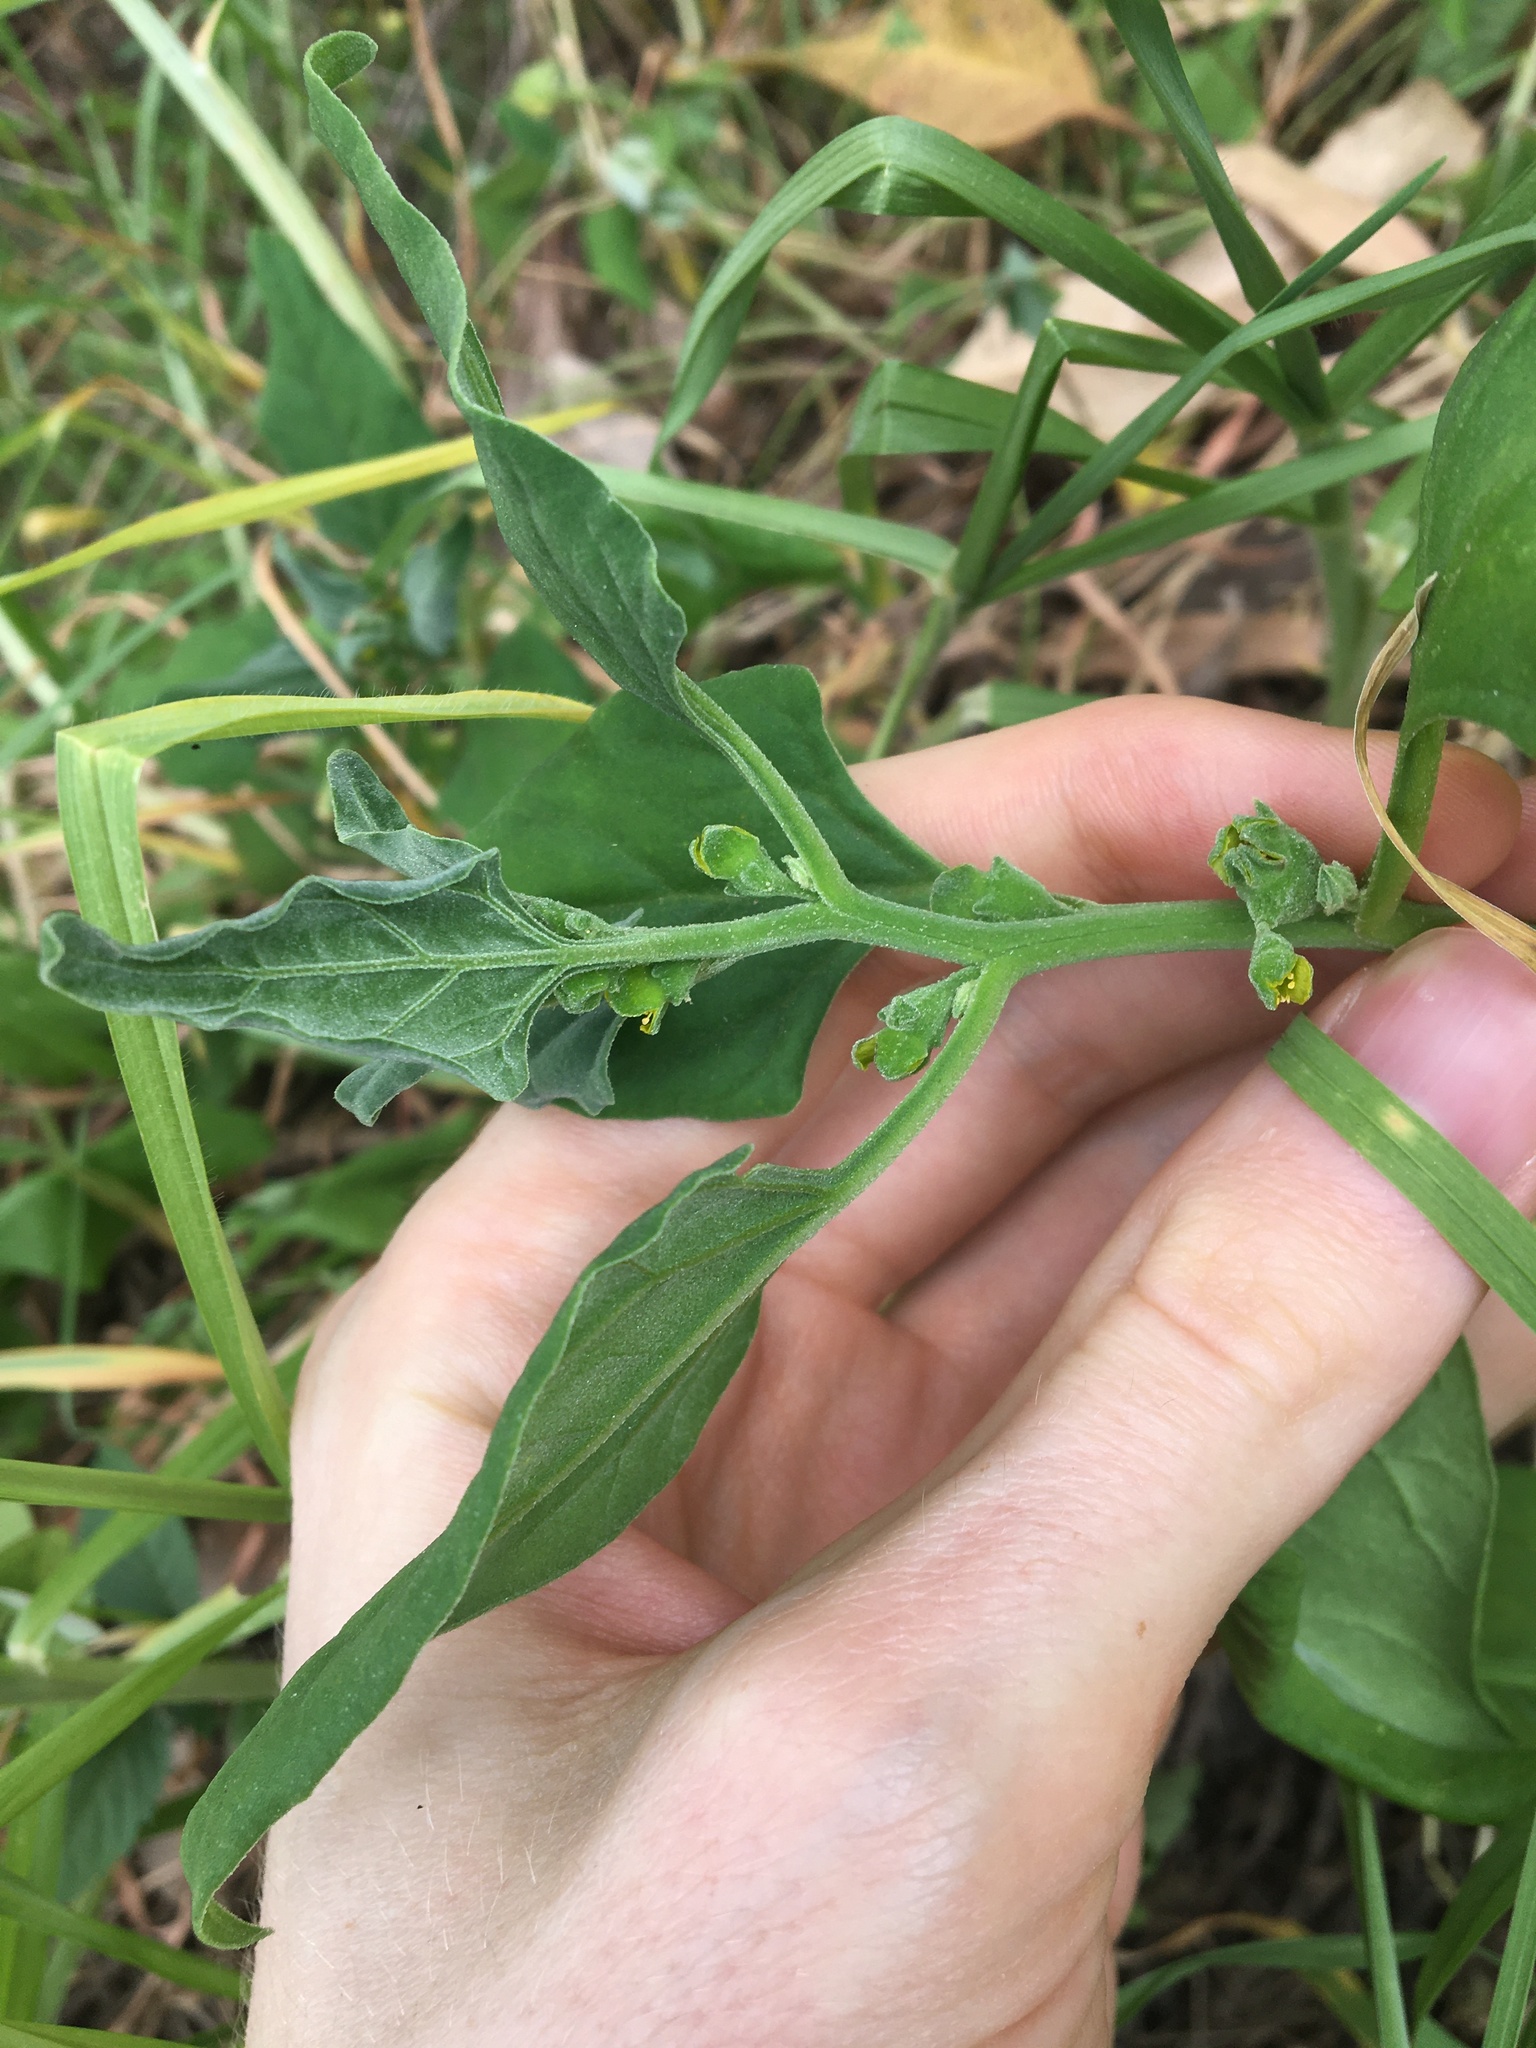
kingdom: Plantae
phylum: Tracheophyta
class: Magnoliopsida
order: Caryophyllales
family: Aizoaceae
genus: Tetragonia
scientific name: Tetragonia tetragonoides
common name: New zealand-spinach
